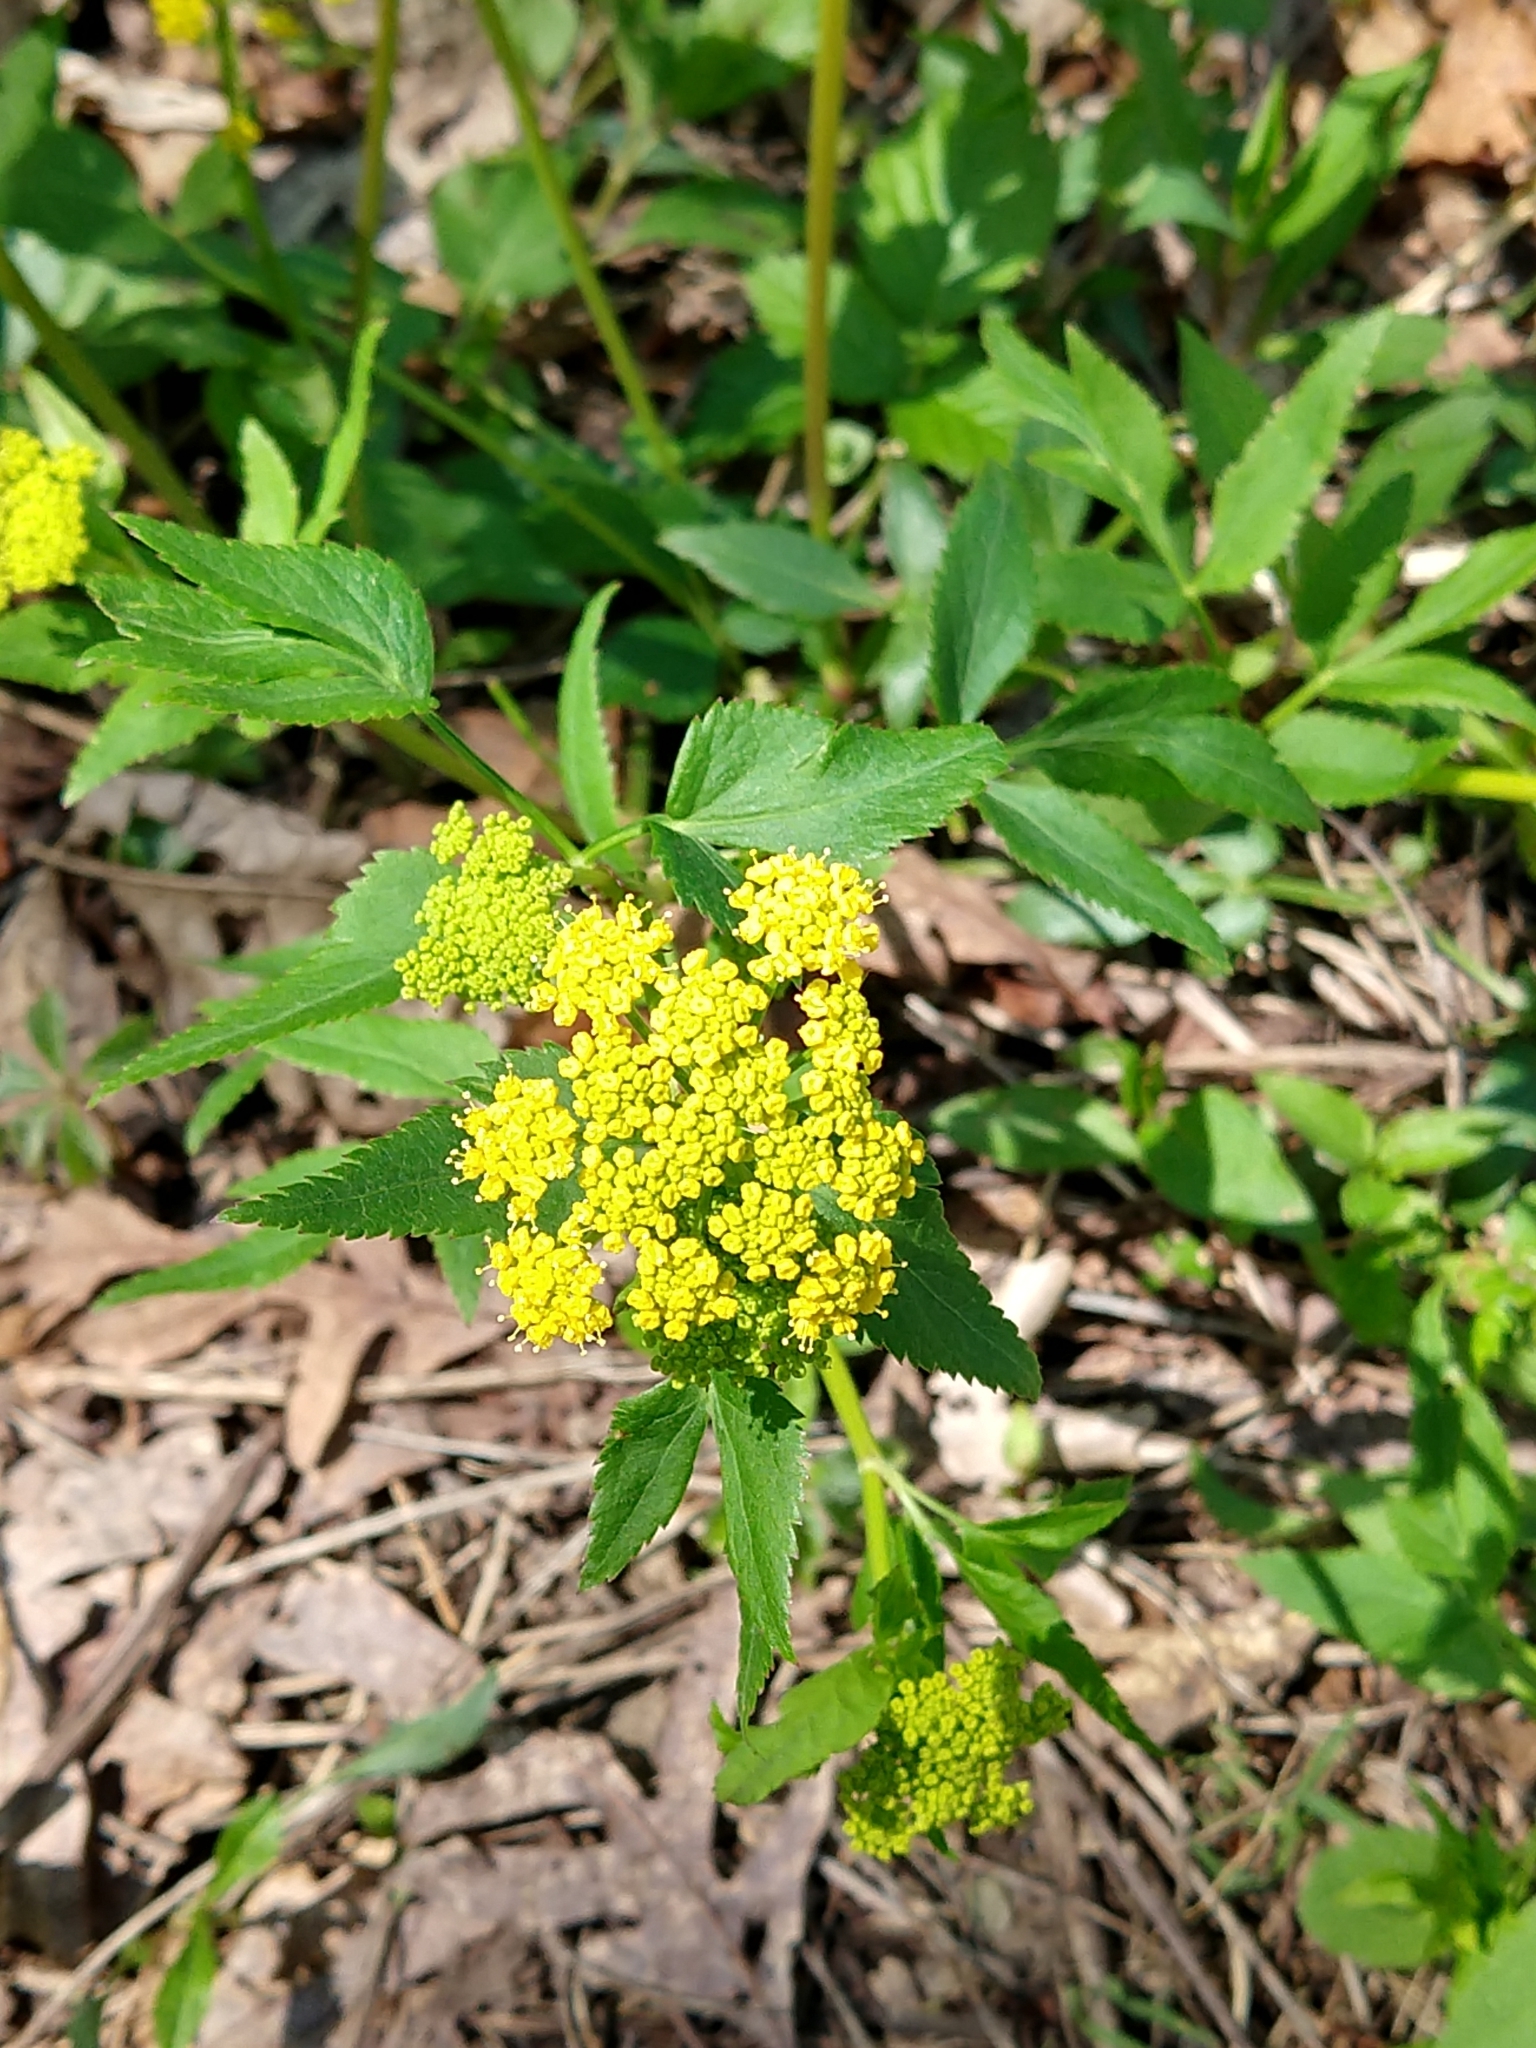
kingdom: Plantae
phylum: Tracheophyta
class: Magnoliopsida
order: Apiales
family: Apiaceae
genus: Zizia
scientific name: Zizia aurea
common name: Golden alexanders
